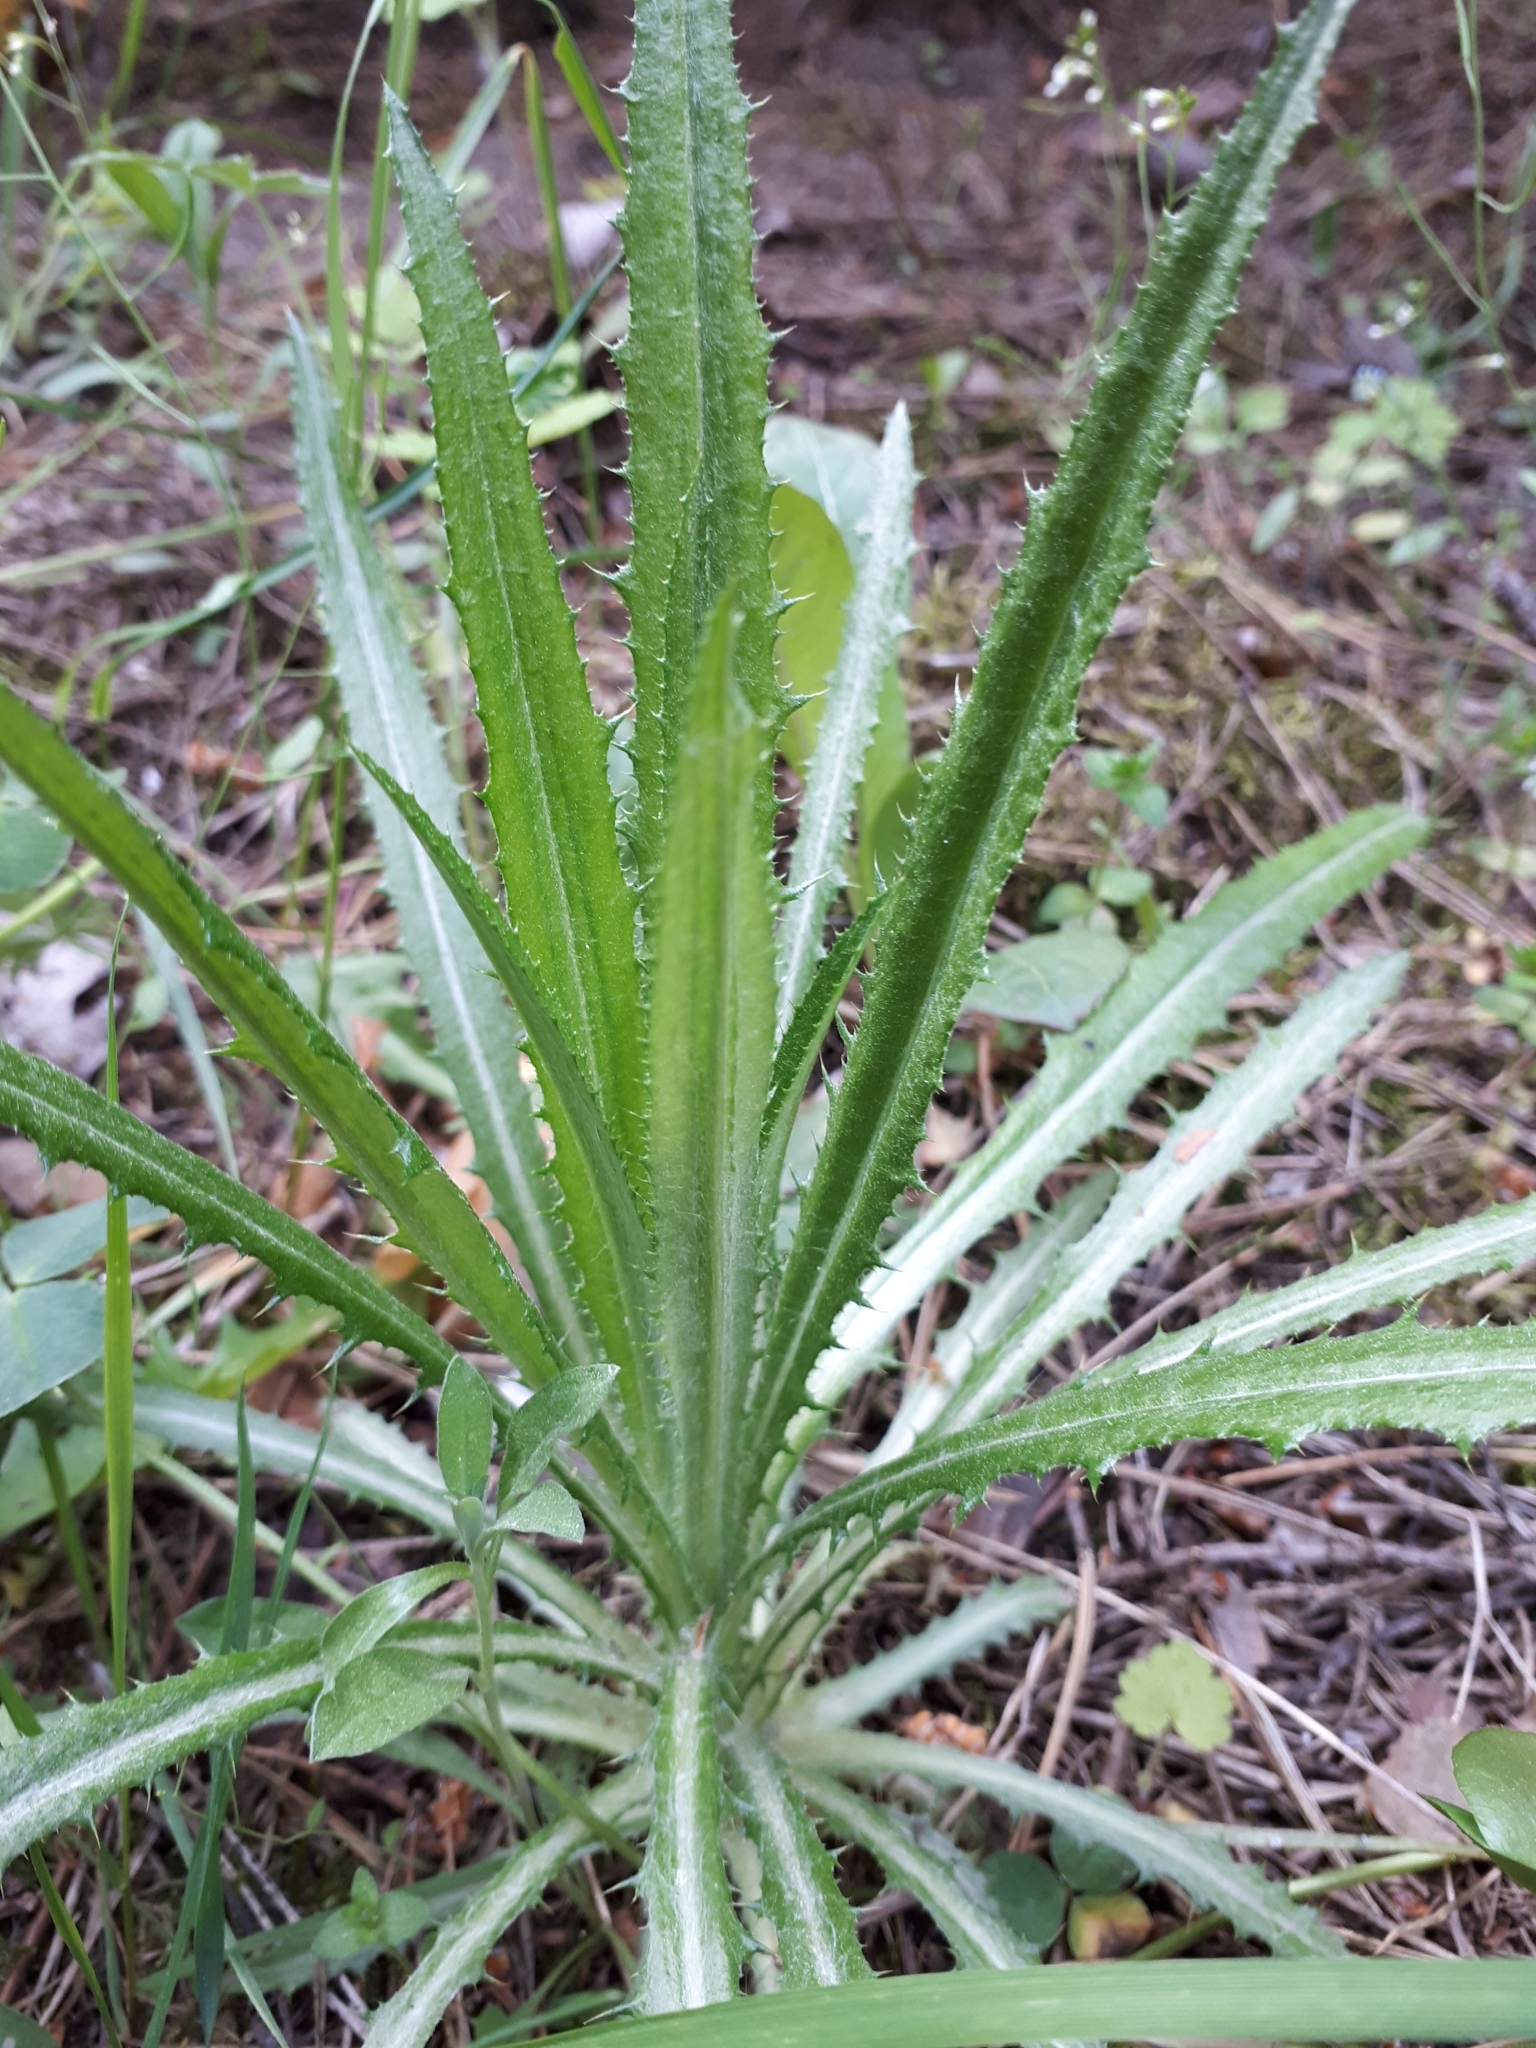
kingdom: Plantae
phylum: Tracheophyta
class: Magnoliopsida
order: Asterales
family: Asteraceae
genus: Carlina
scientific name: Carlina biebersteinii
